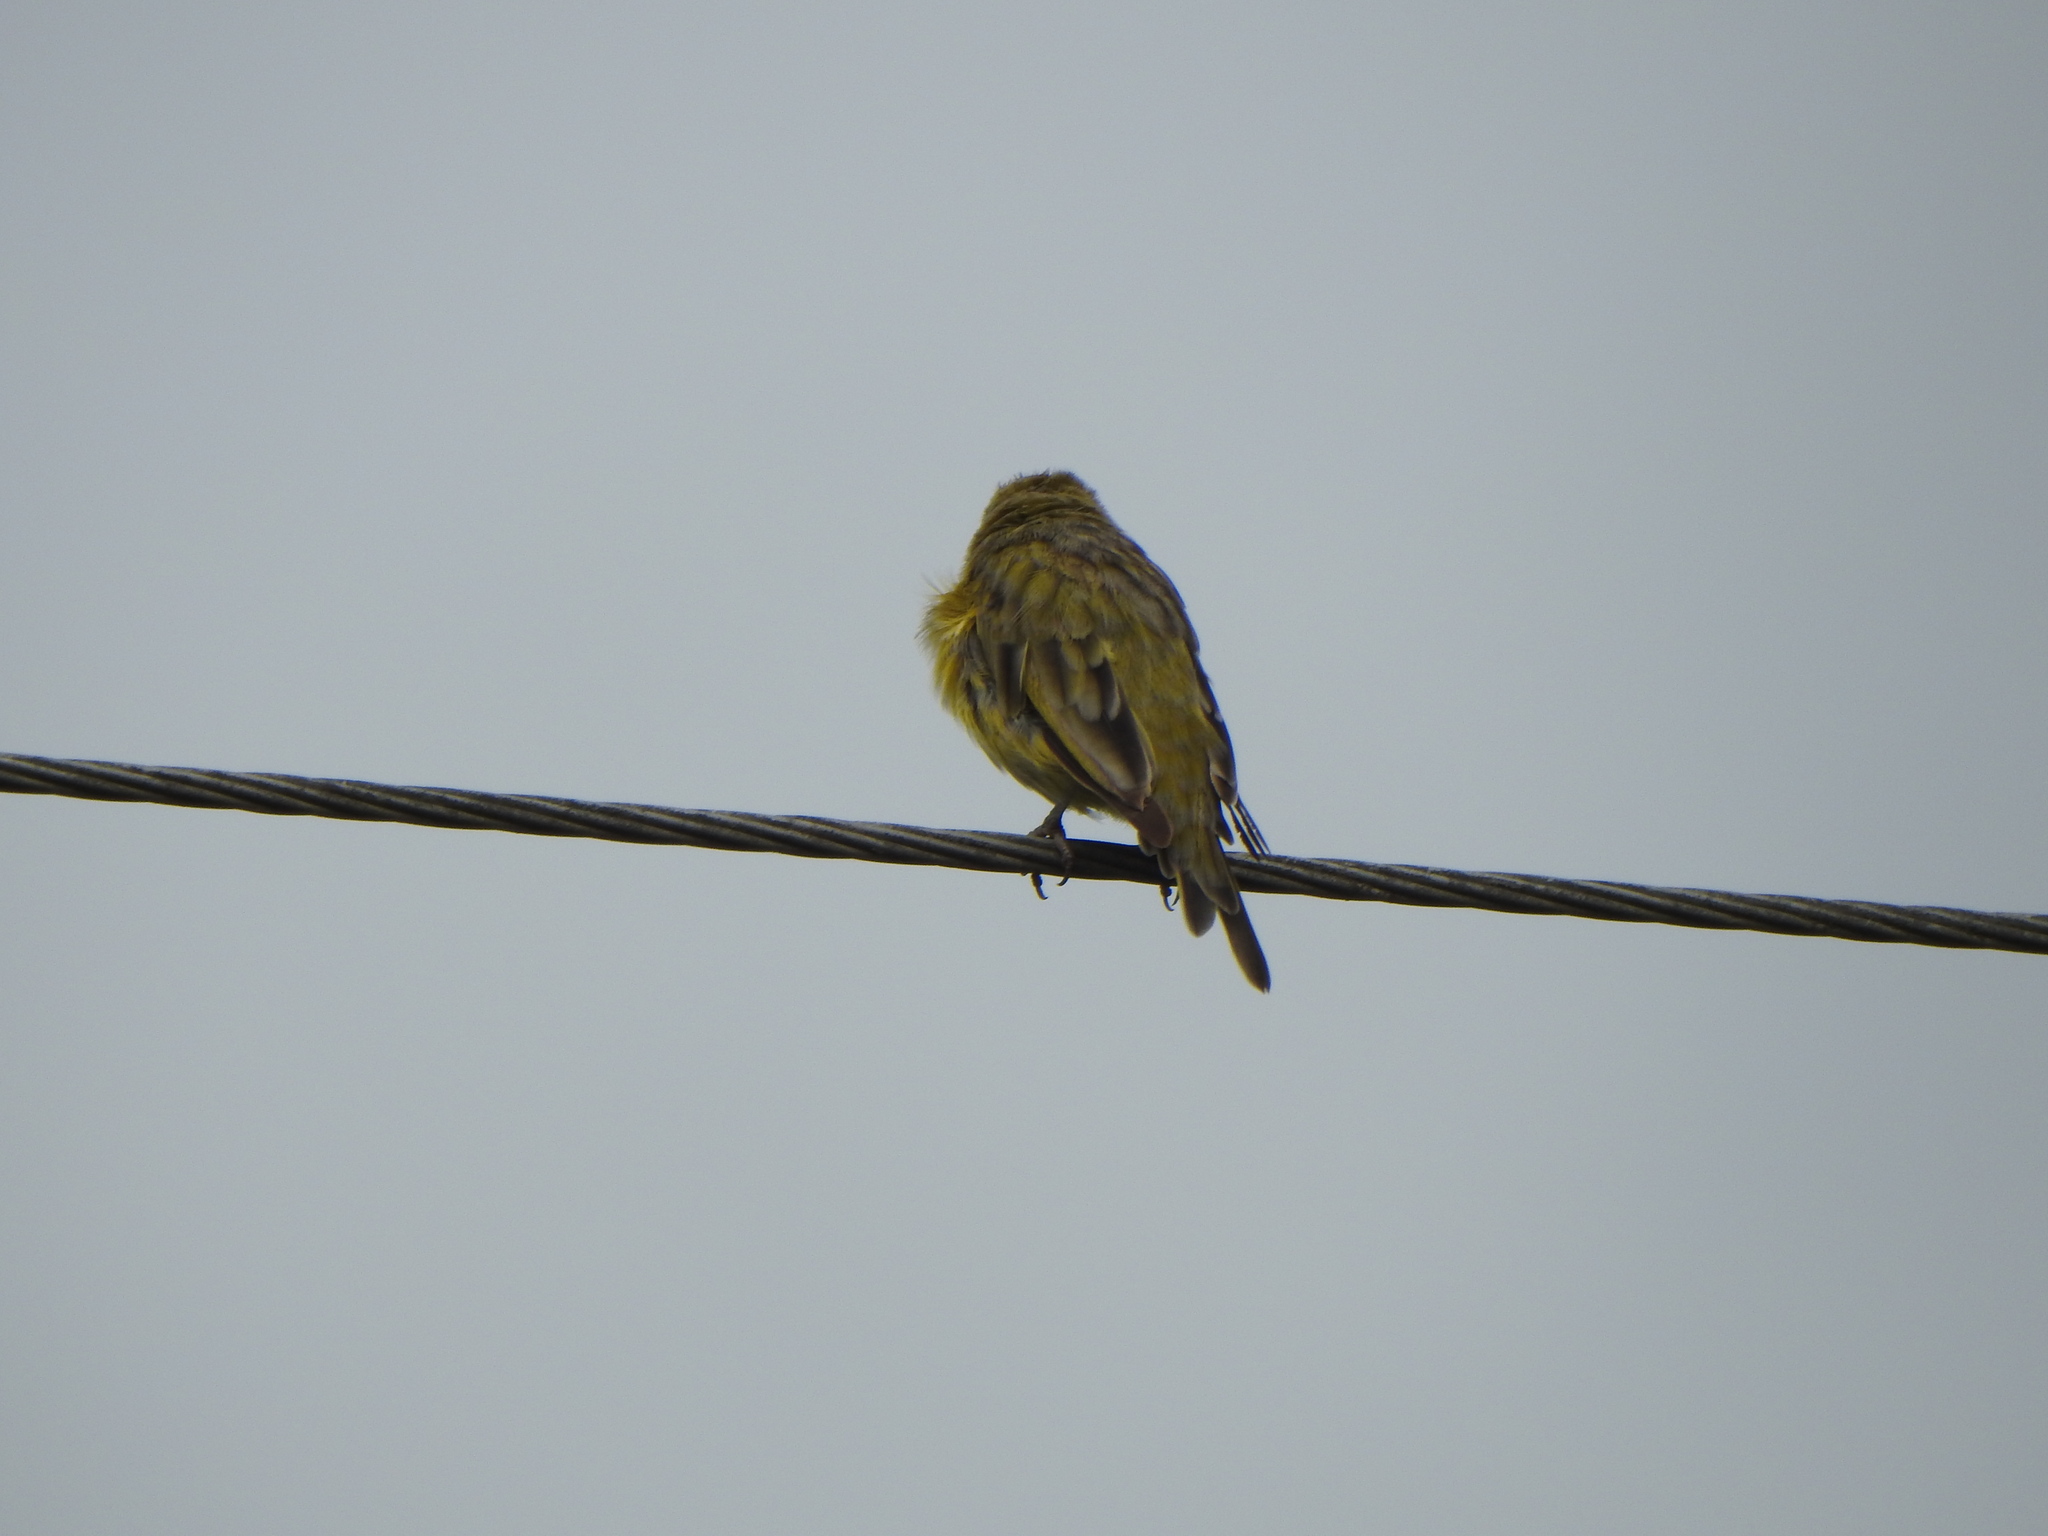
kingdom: Animalia
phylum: Chordata
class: Aves
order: Passeriformes
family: Thraupidae
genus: Sicalis
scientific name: Sicalis flaveola
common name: Saffron finch
